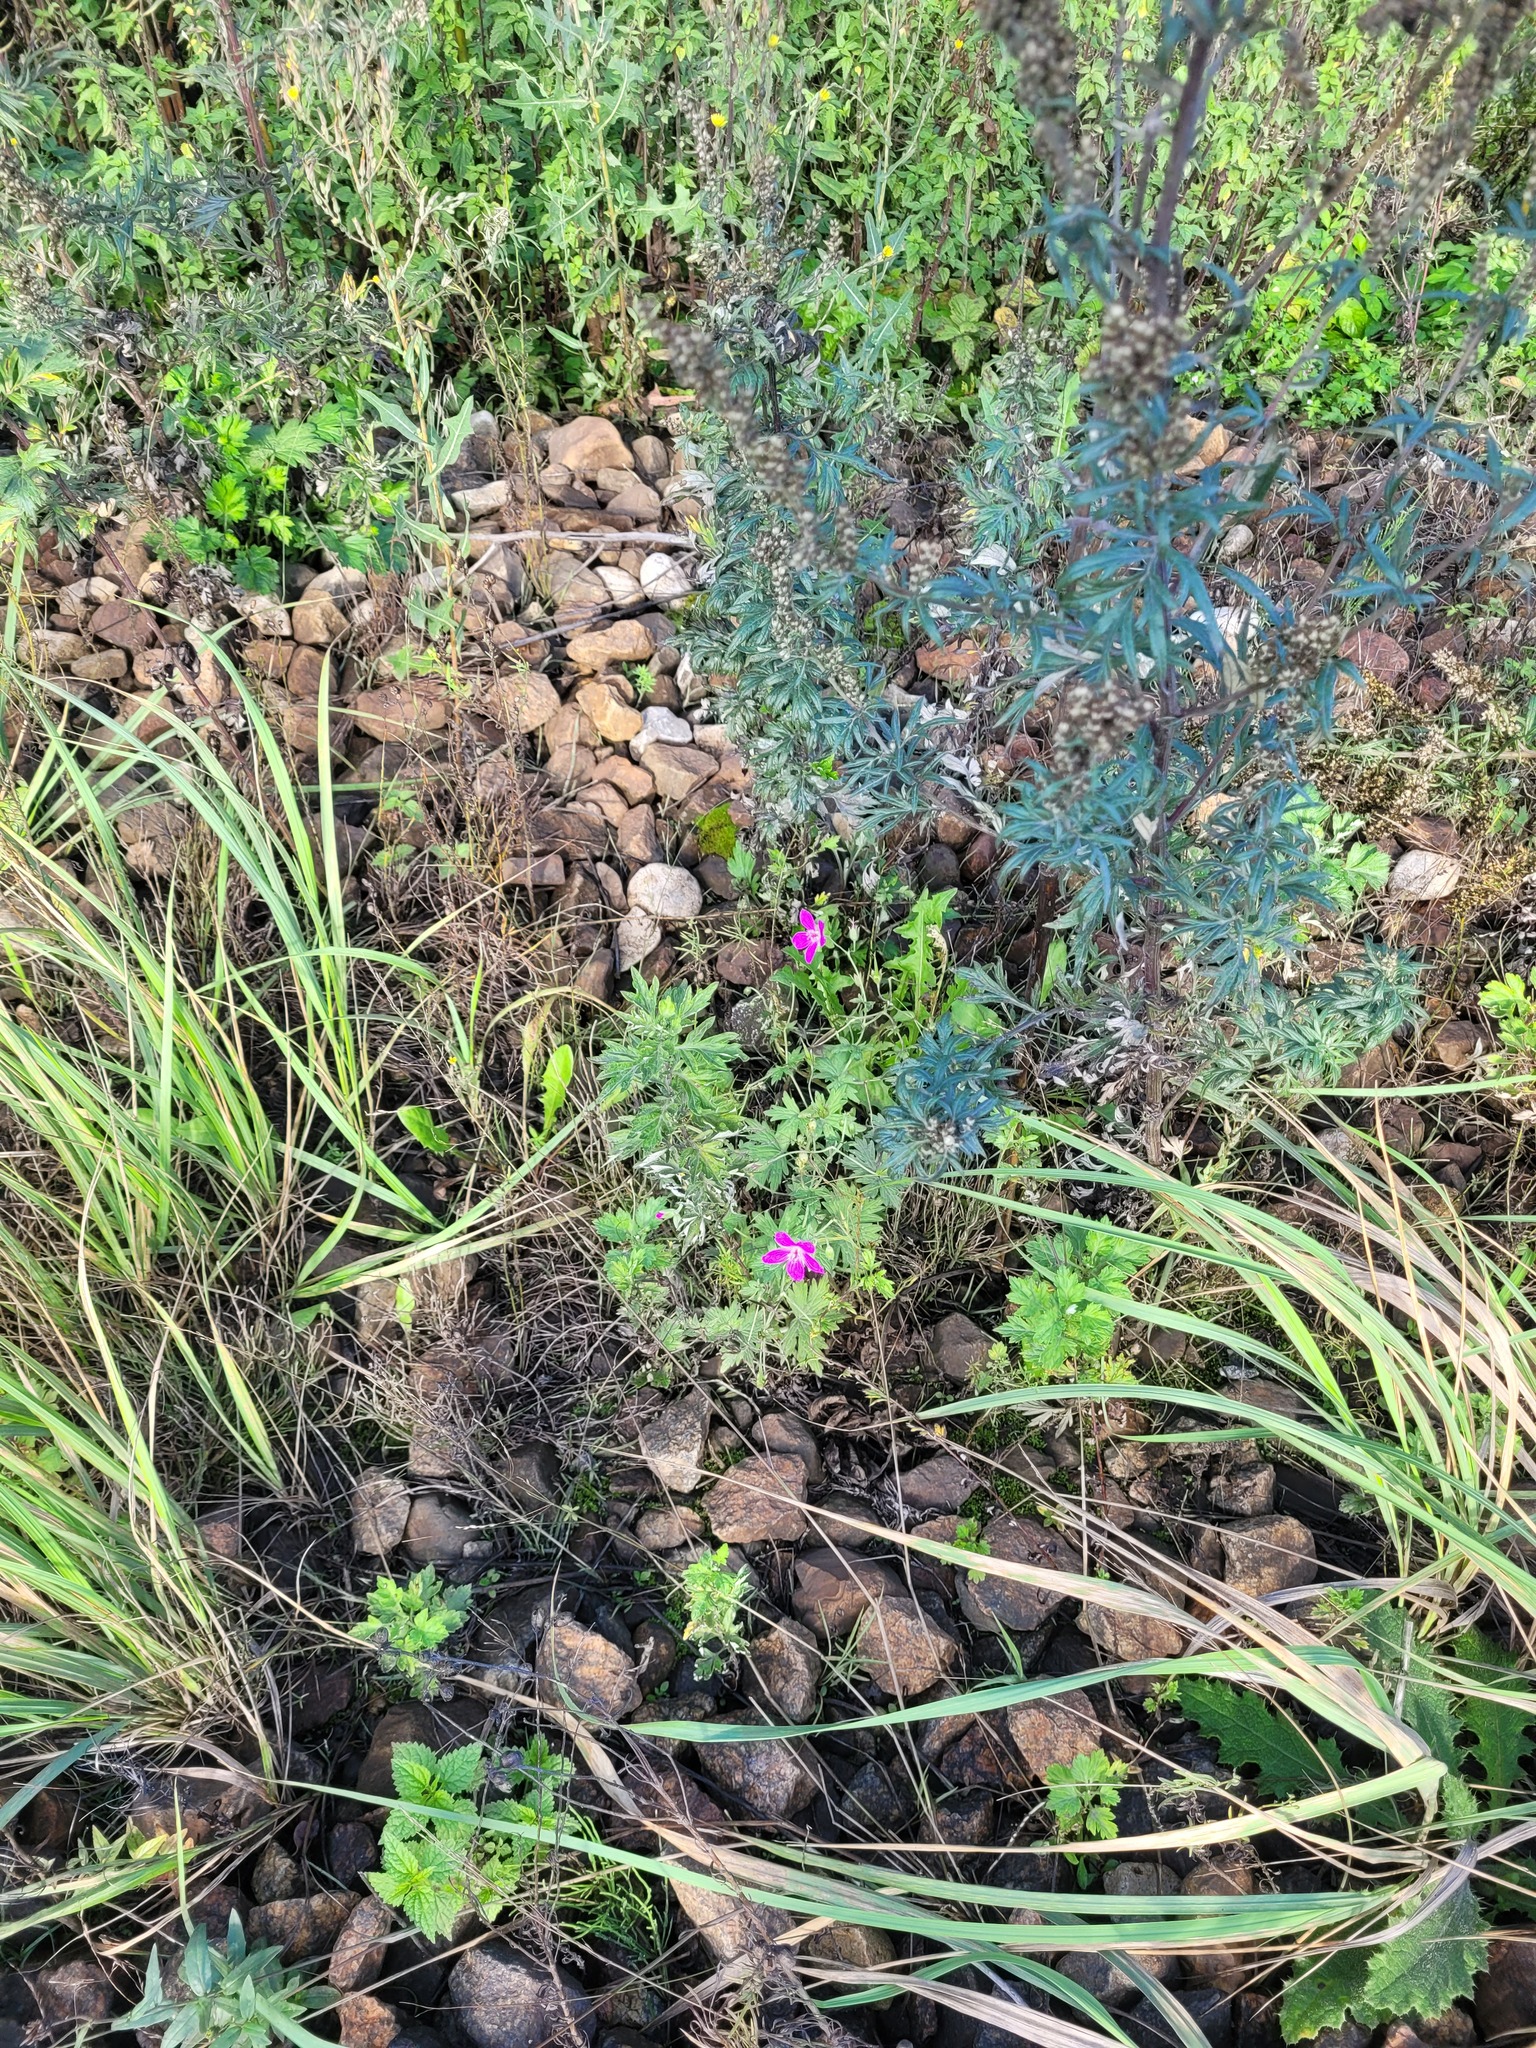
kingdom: Plantae
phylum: Tracheophyta
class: Magnoliopsida
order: Geraniales
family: Geraniaceae
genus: Geranium
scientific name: Geranium palustre
